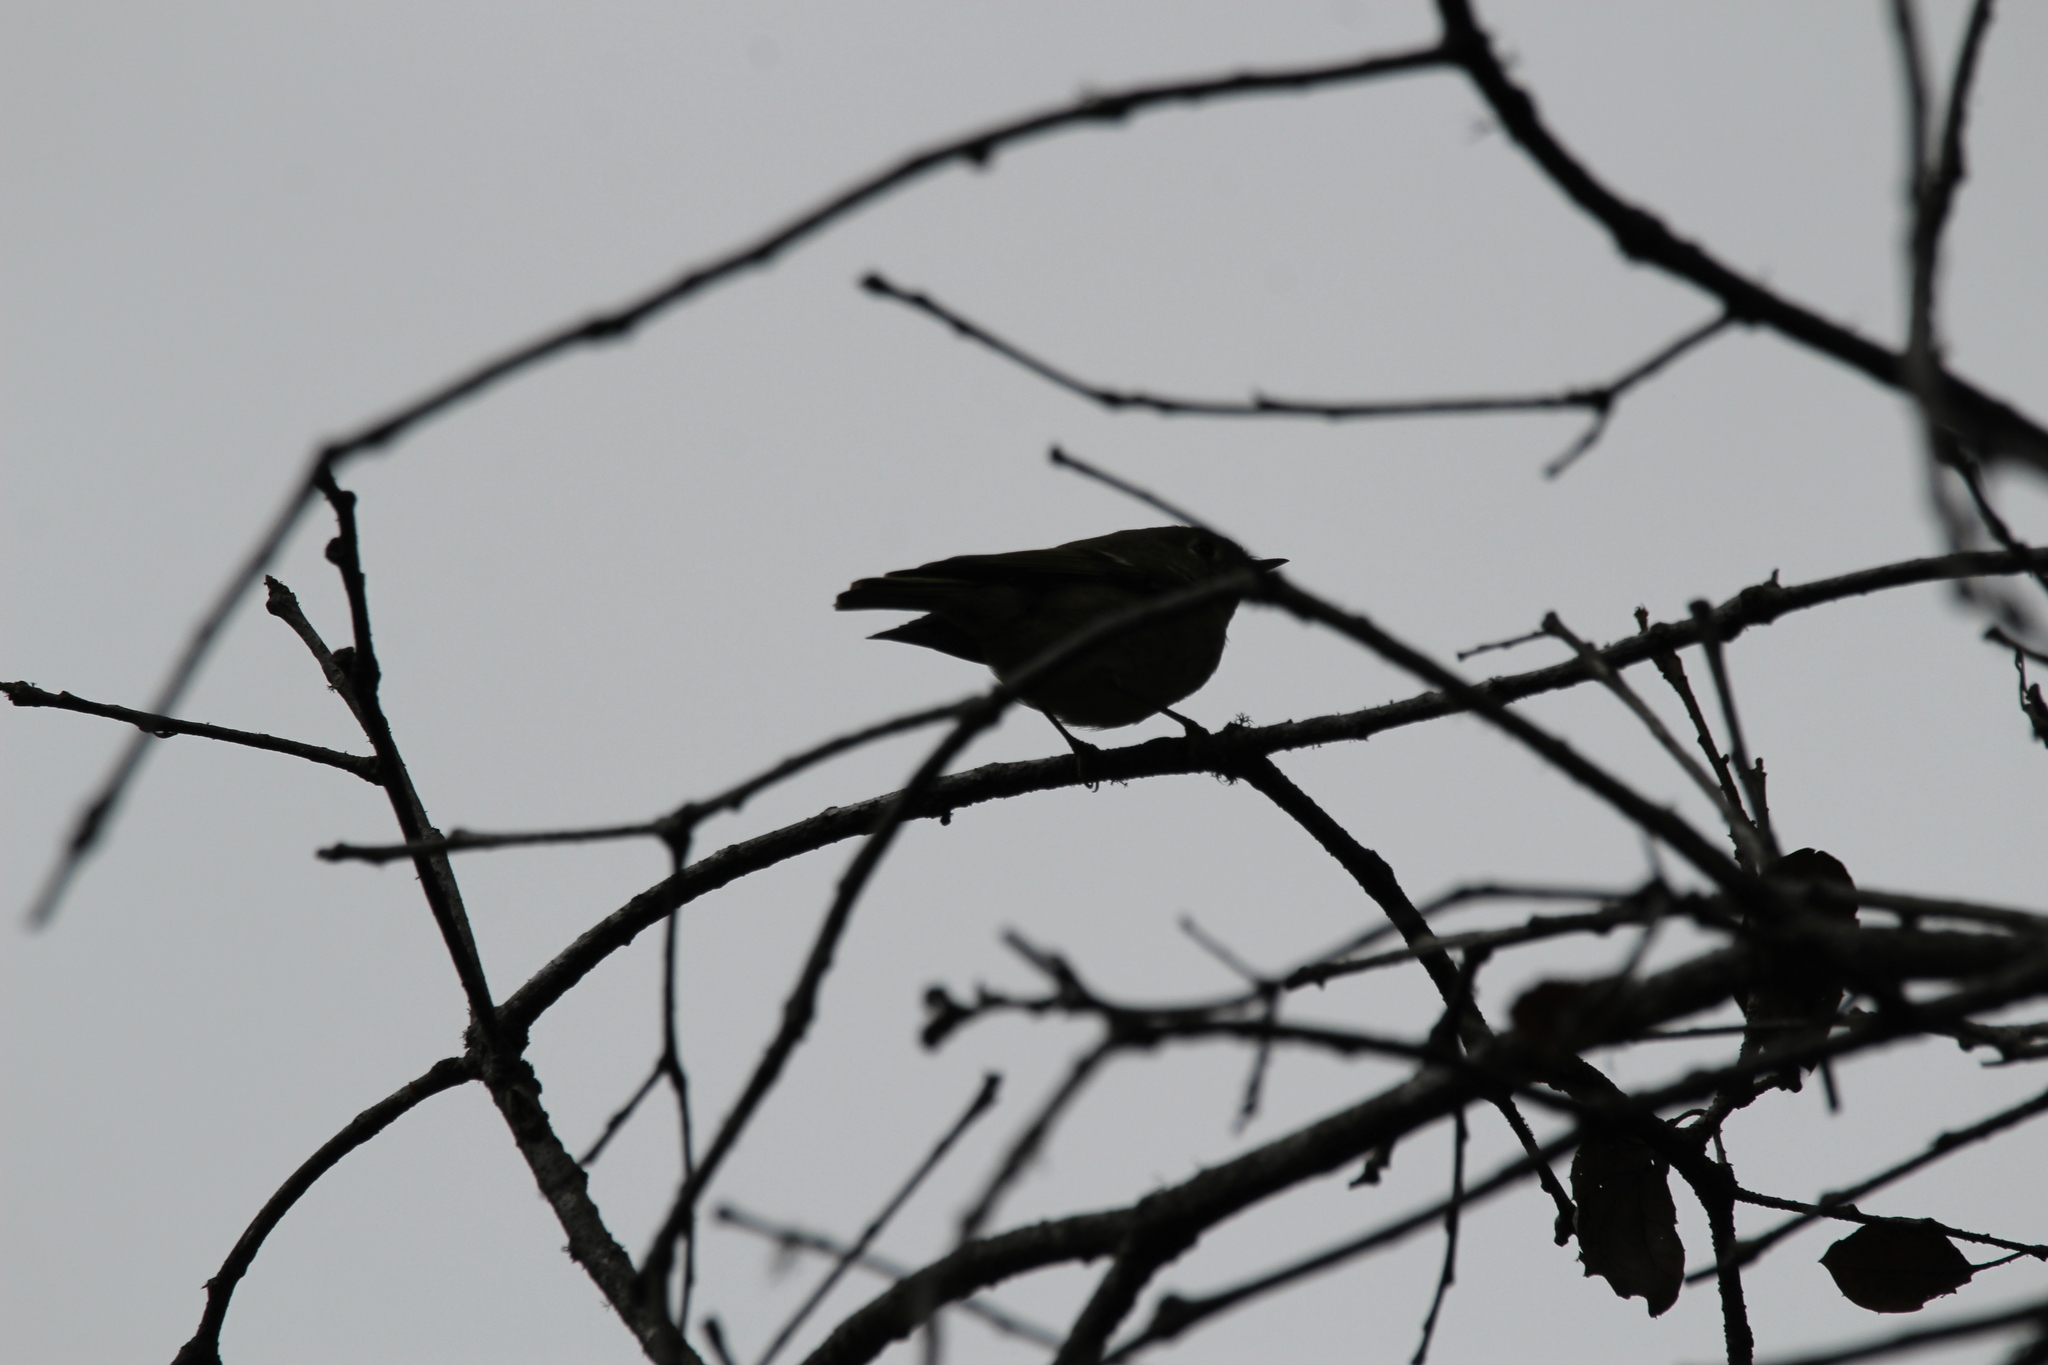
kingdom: Animalia
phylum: Chordata
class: Aves
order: Passeriformes
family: Regulidae
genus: Regulus
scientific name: Regulus calendula
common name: Ruby-crowned kinglet
